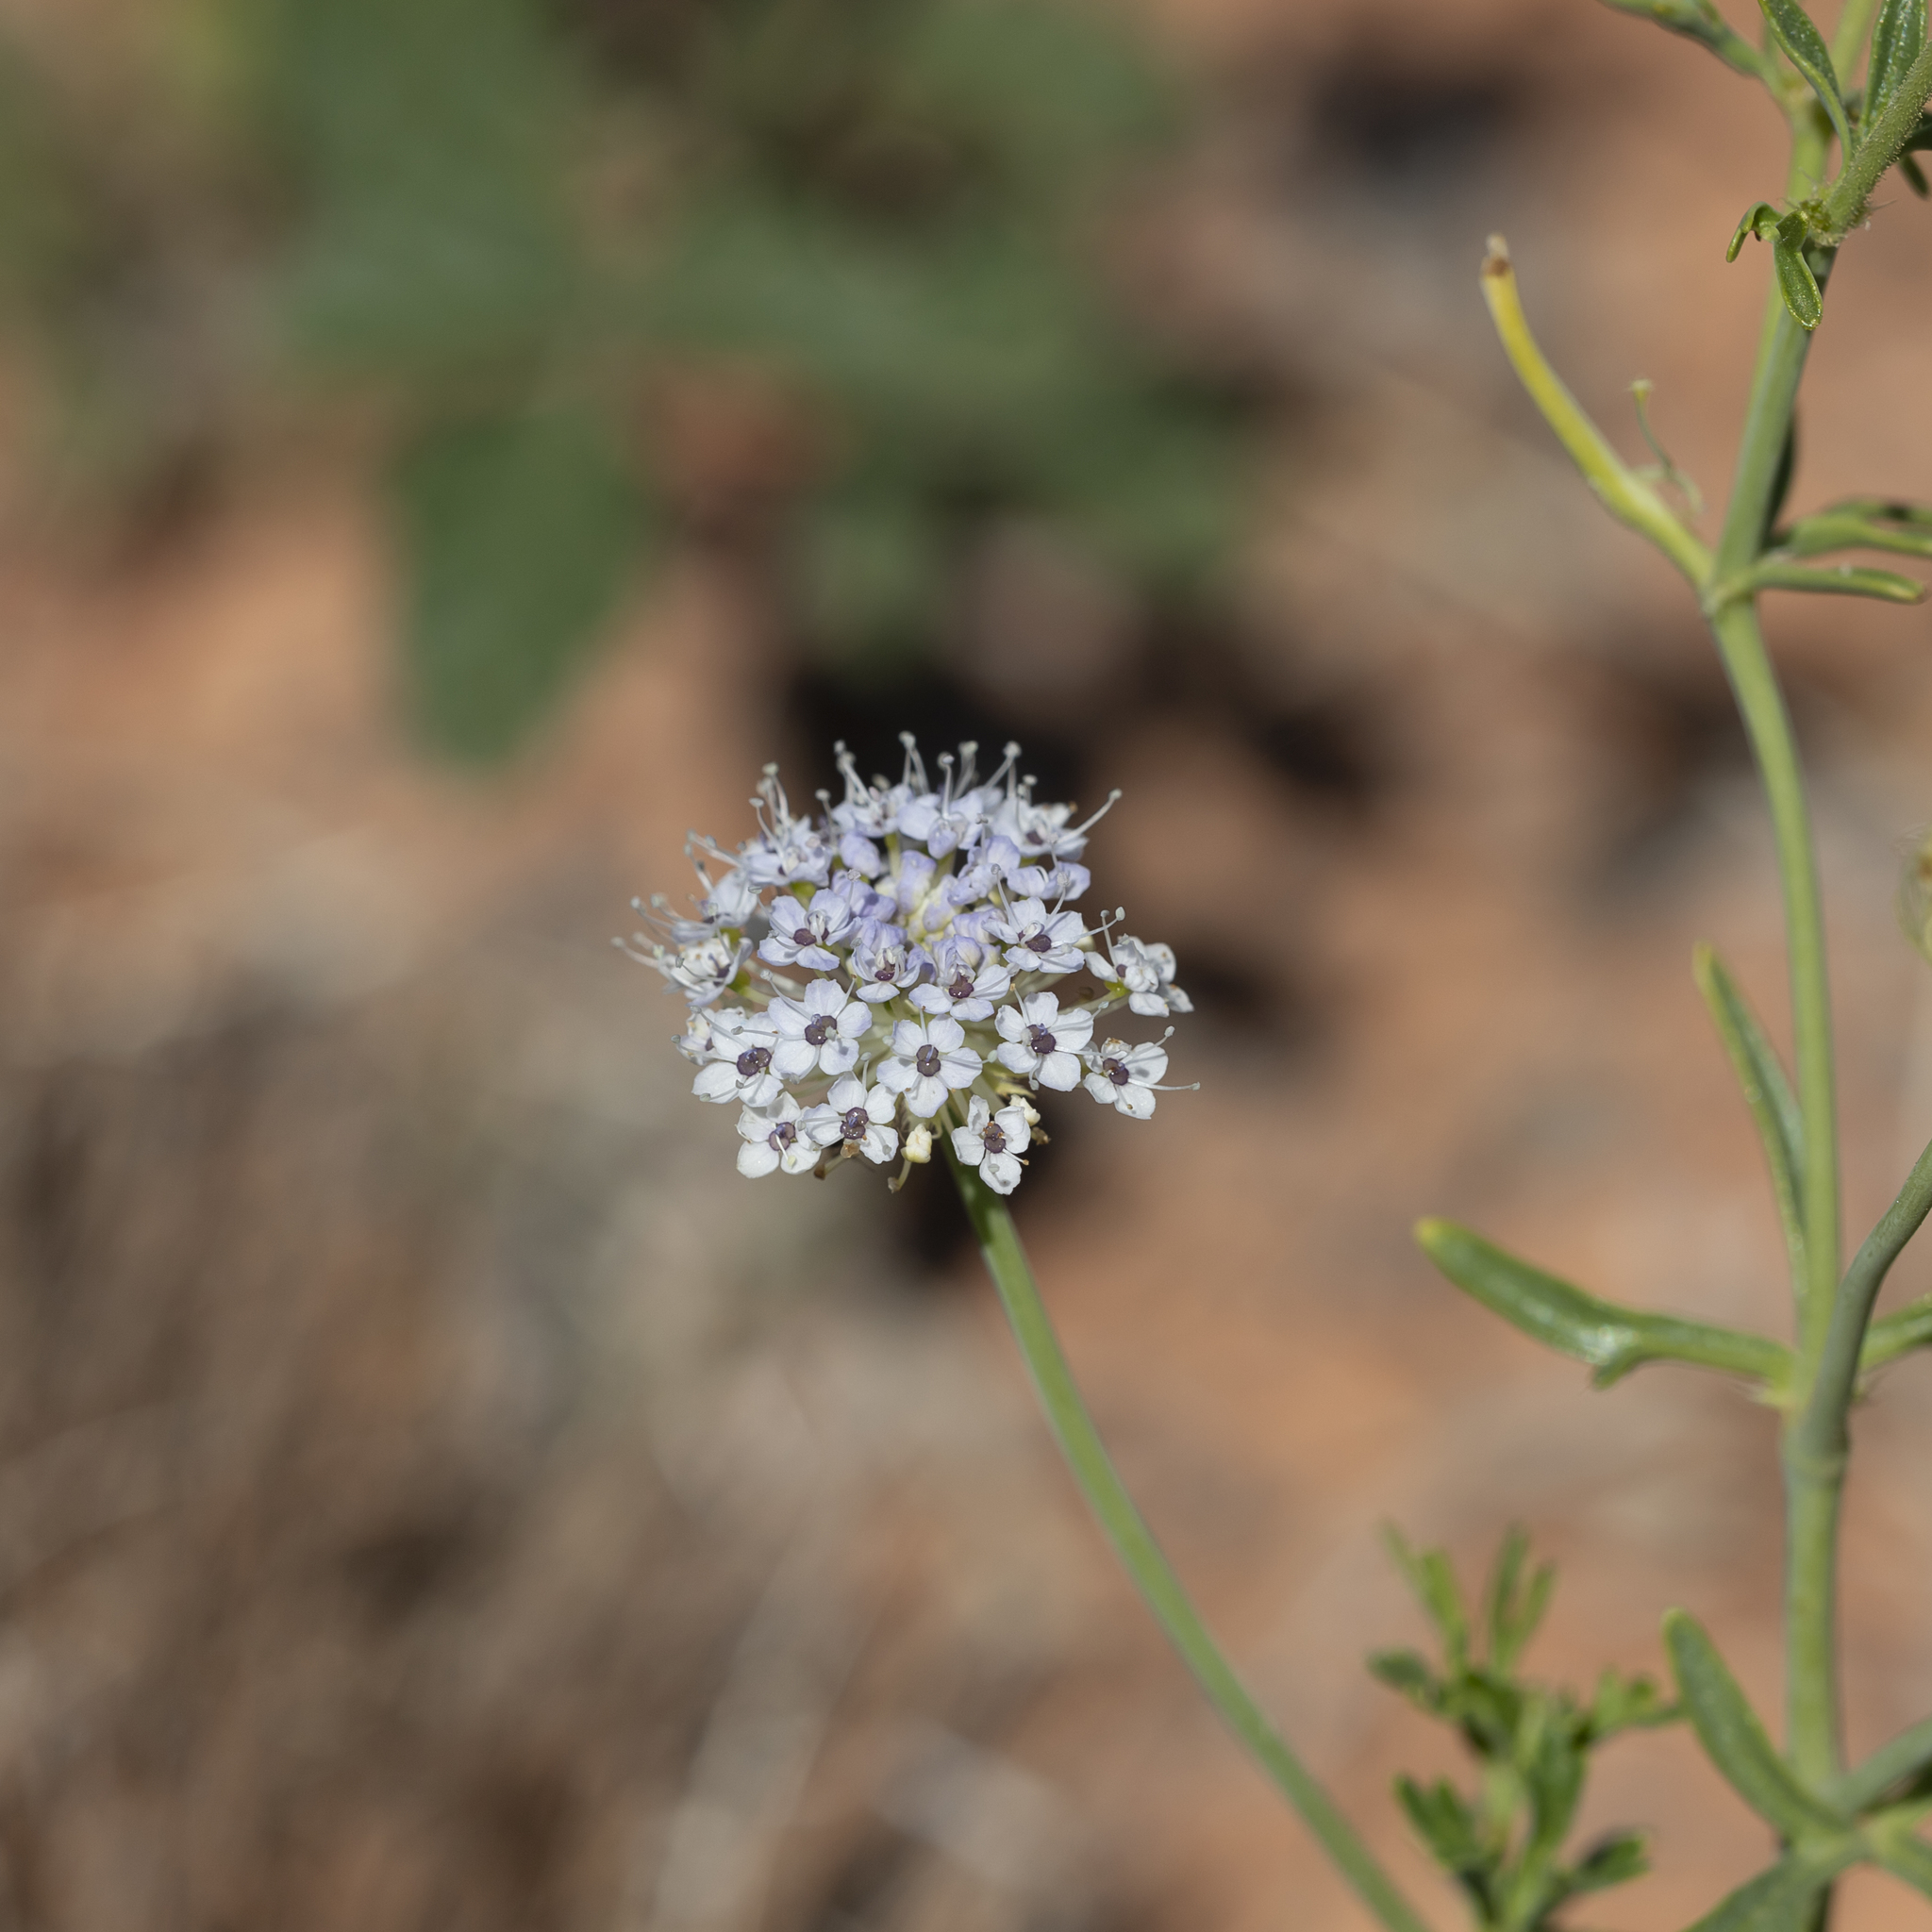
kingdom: Plantae
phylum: Tracheophyta
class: Magnoliopsida
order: Apiales
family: Araliaceae
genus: Trachymene
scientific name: Trachymene glaucifolia
